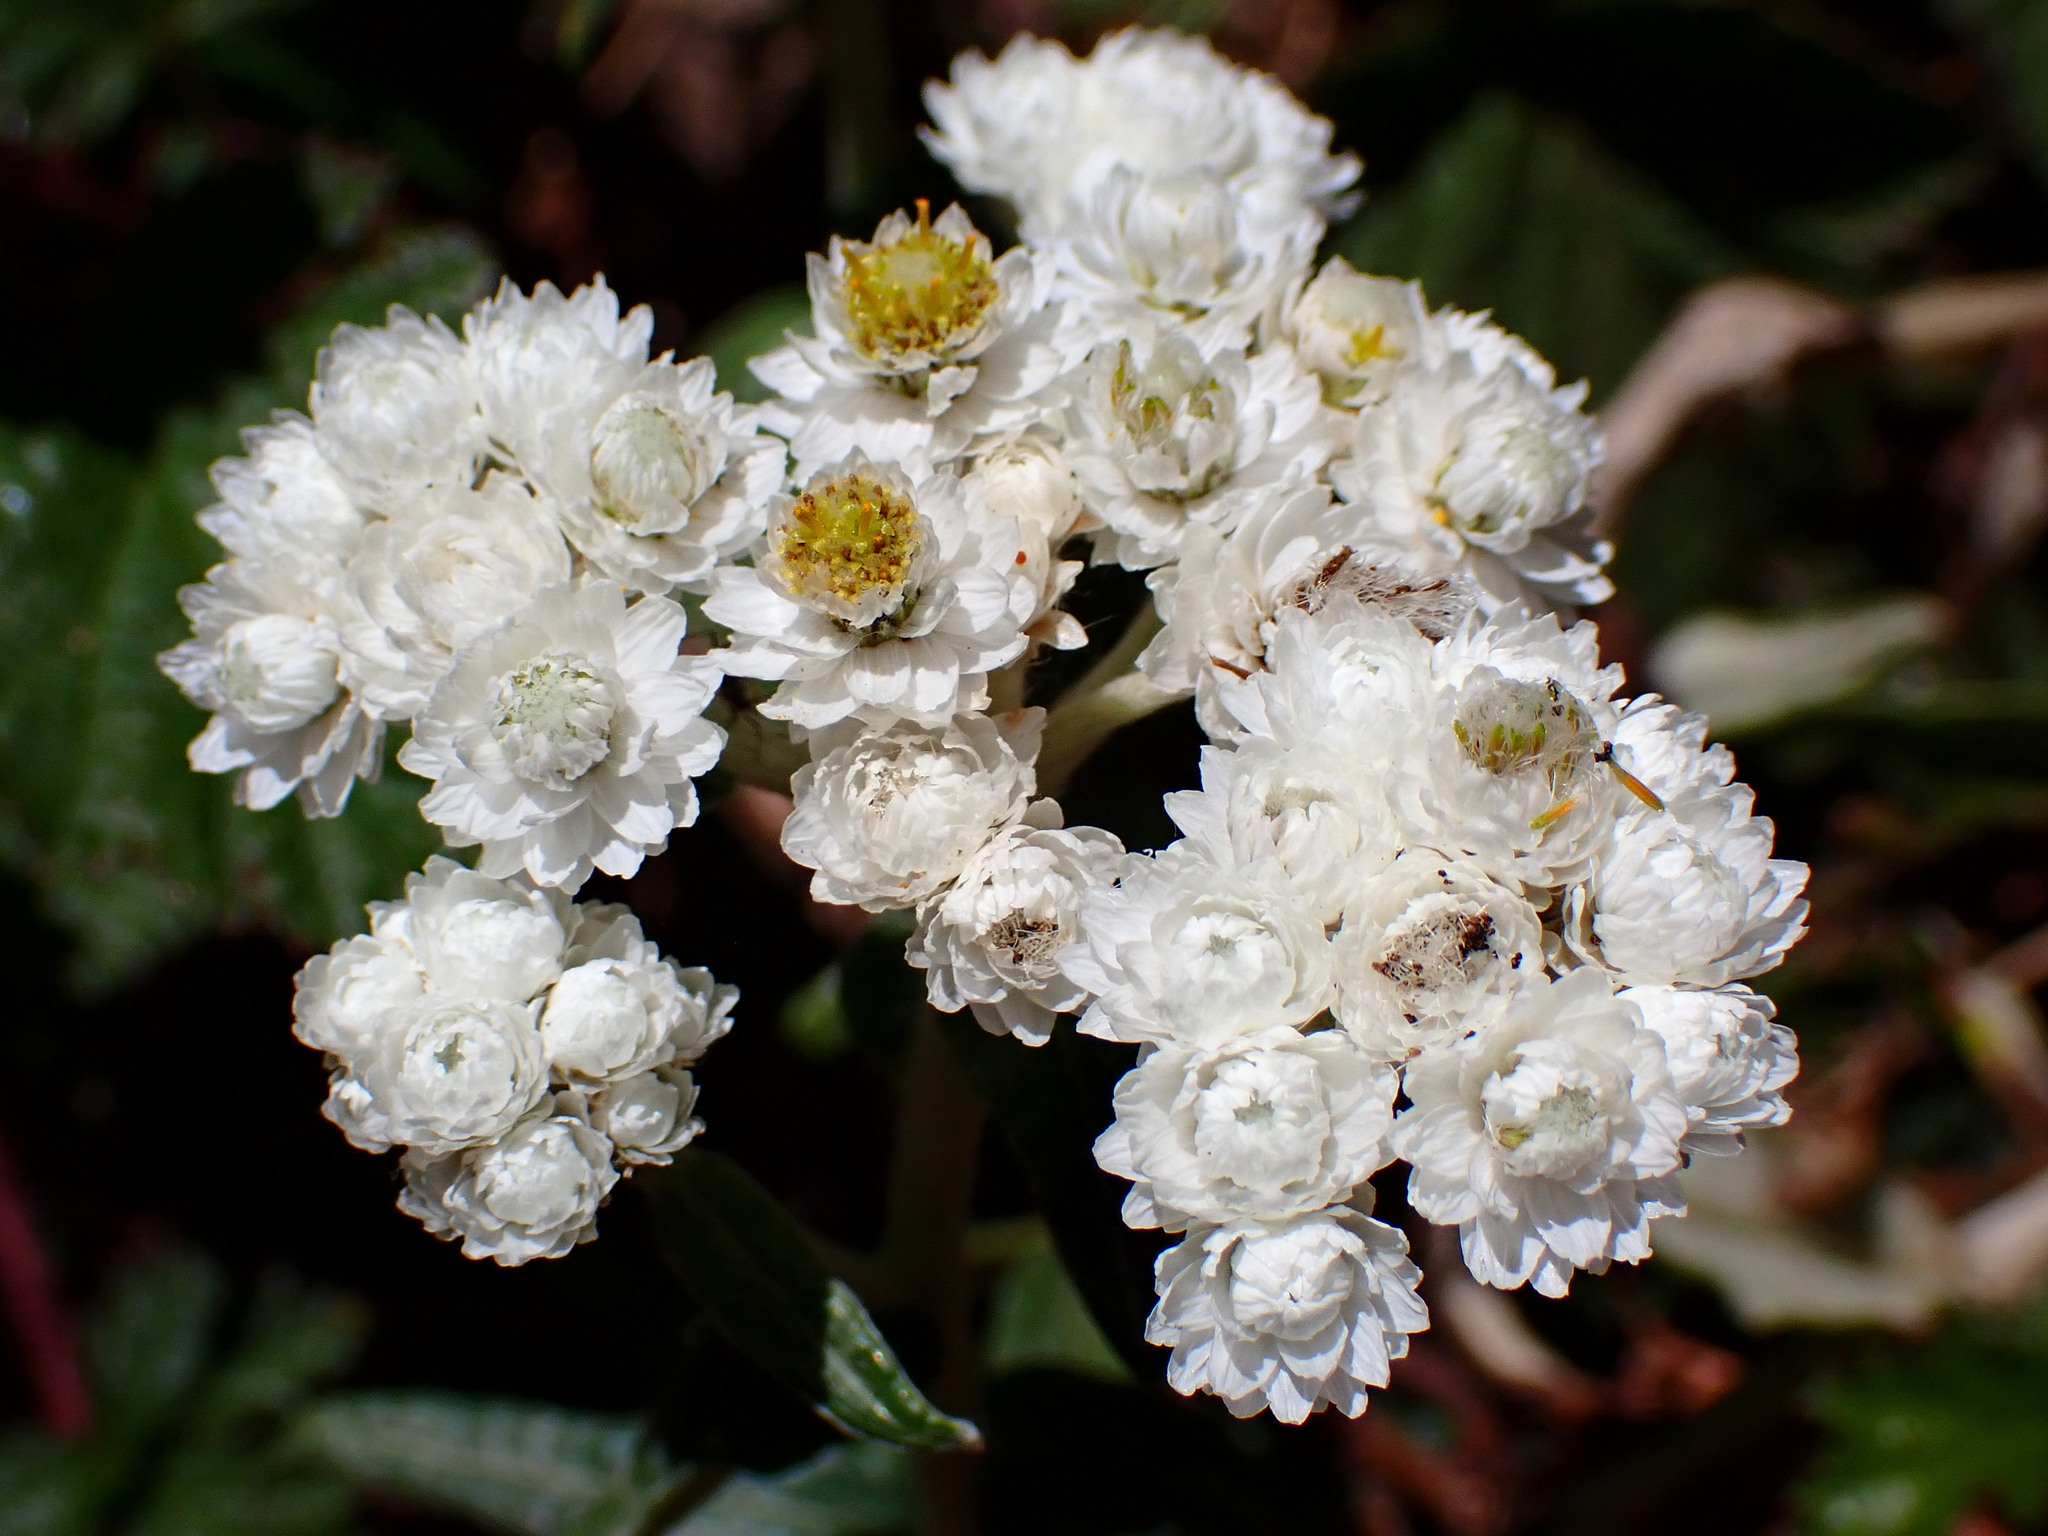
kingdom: Plantae
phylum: Tracheophyta
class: Magnoliopsida
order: Asterales
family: Asteraceae
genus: Anaphalis
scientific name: Anaphalis margaritacea
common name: Pearly everlasting
